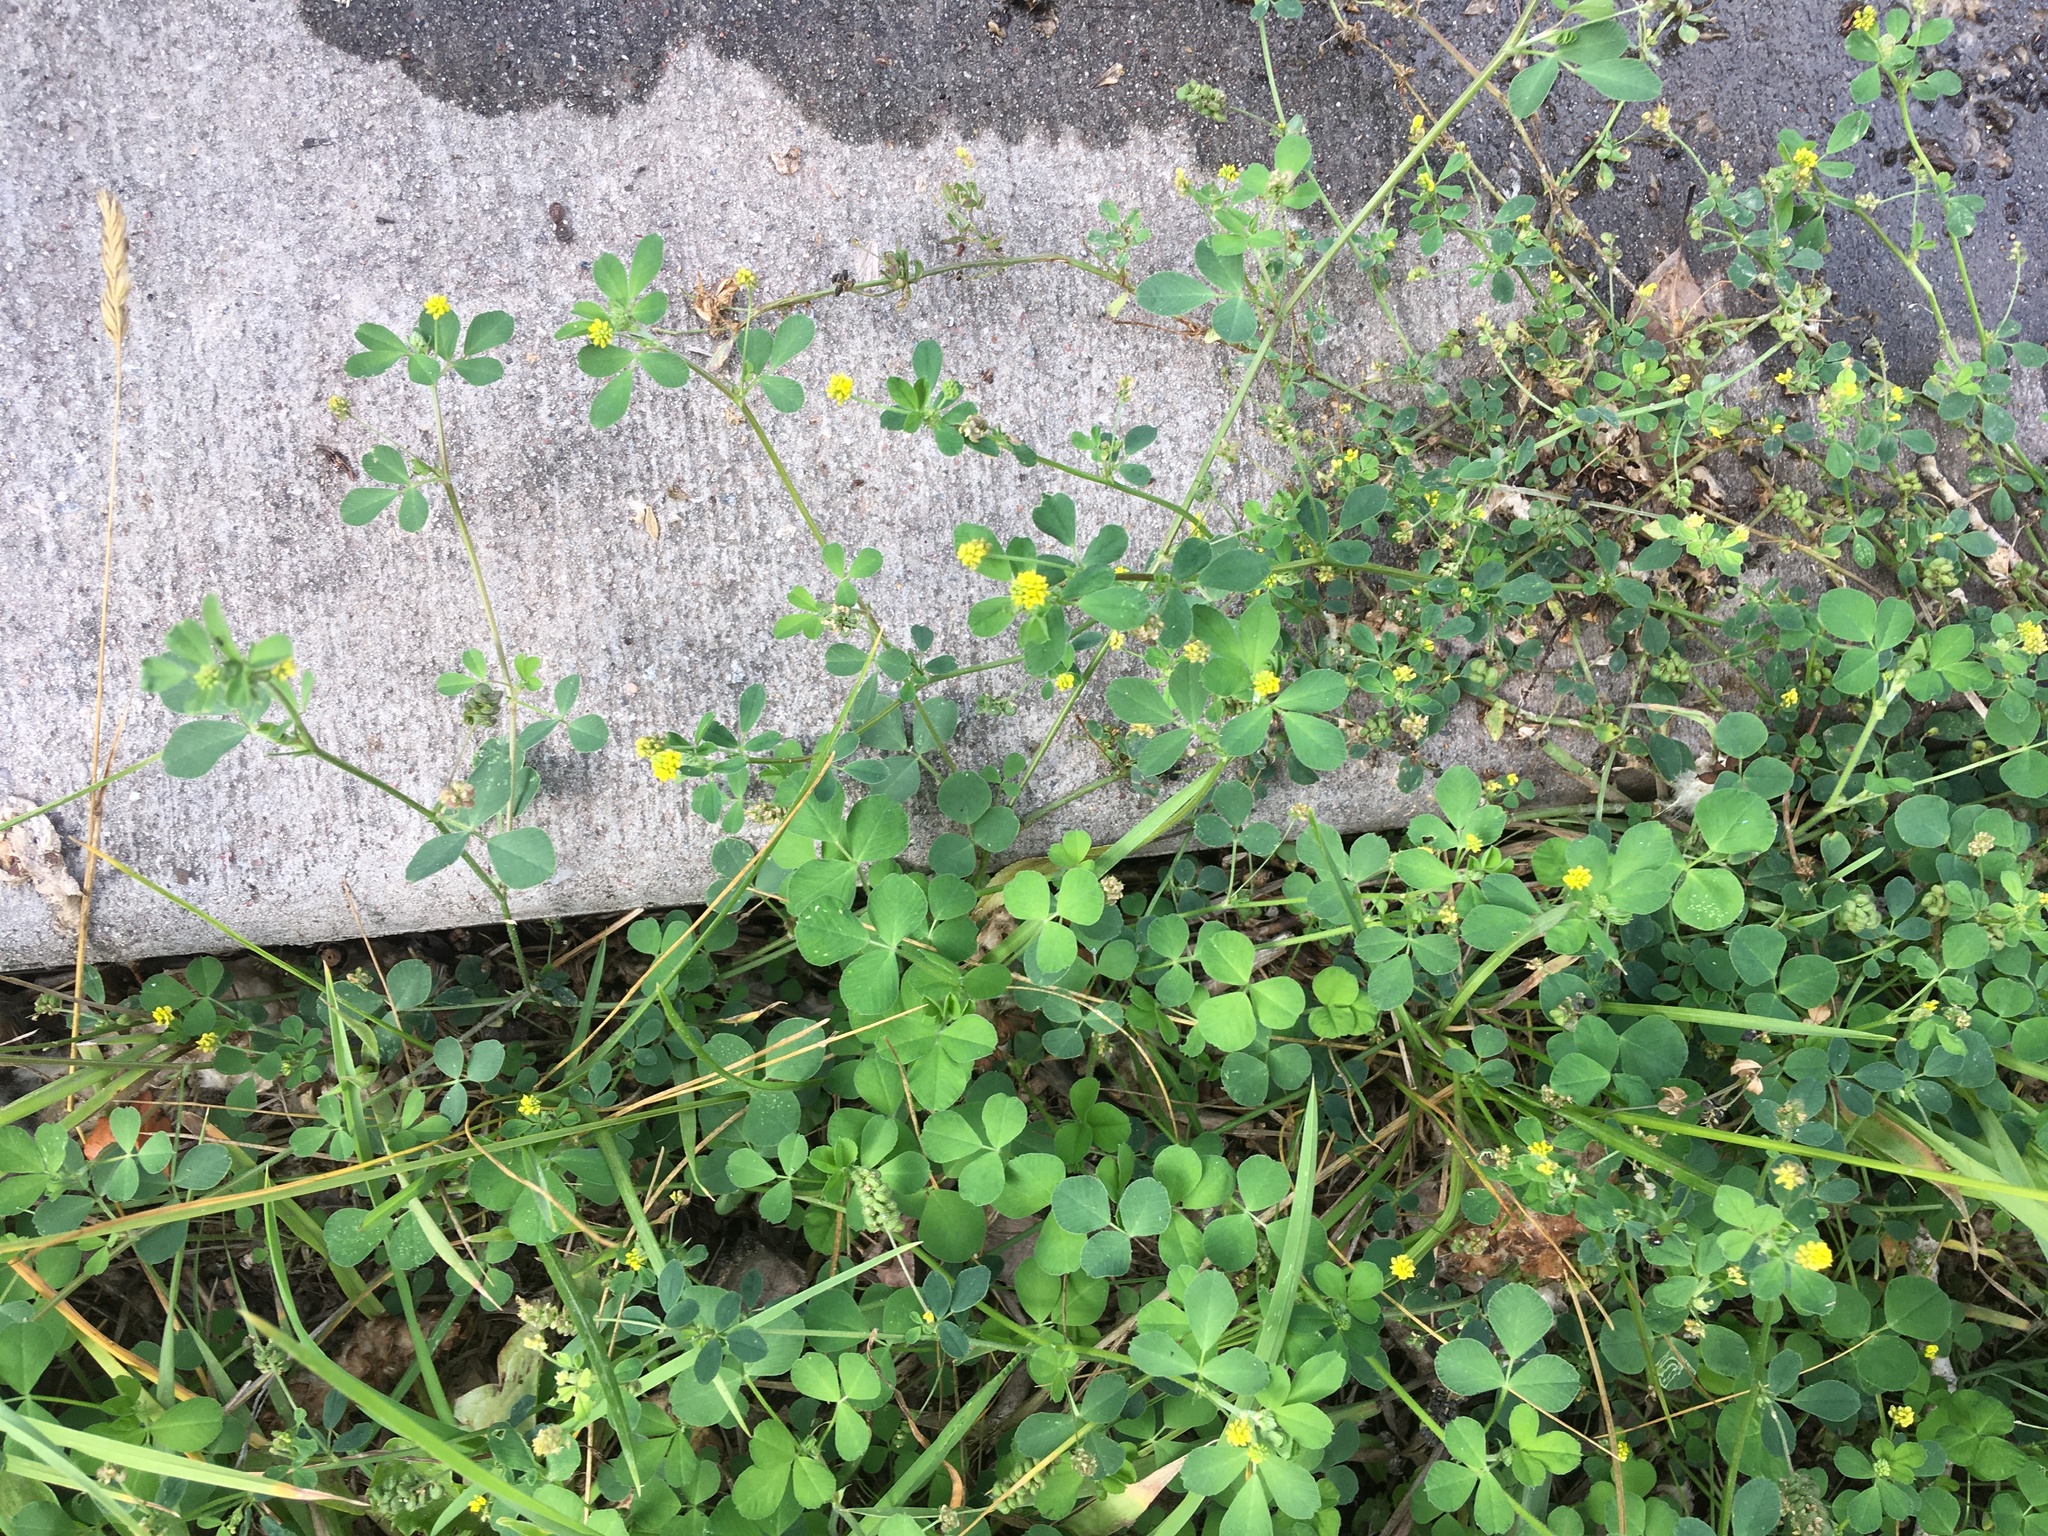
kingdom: Plantae
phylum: Tracheophyta
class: Magnoliopsida
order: Fabales
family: Fabaceae
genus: Medicago
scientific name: Medicago lupulina
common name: Black medick
